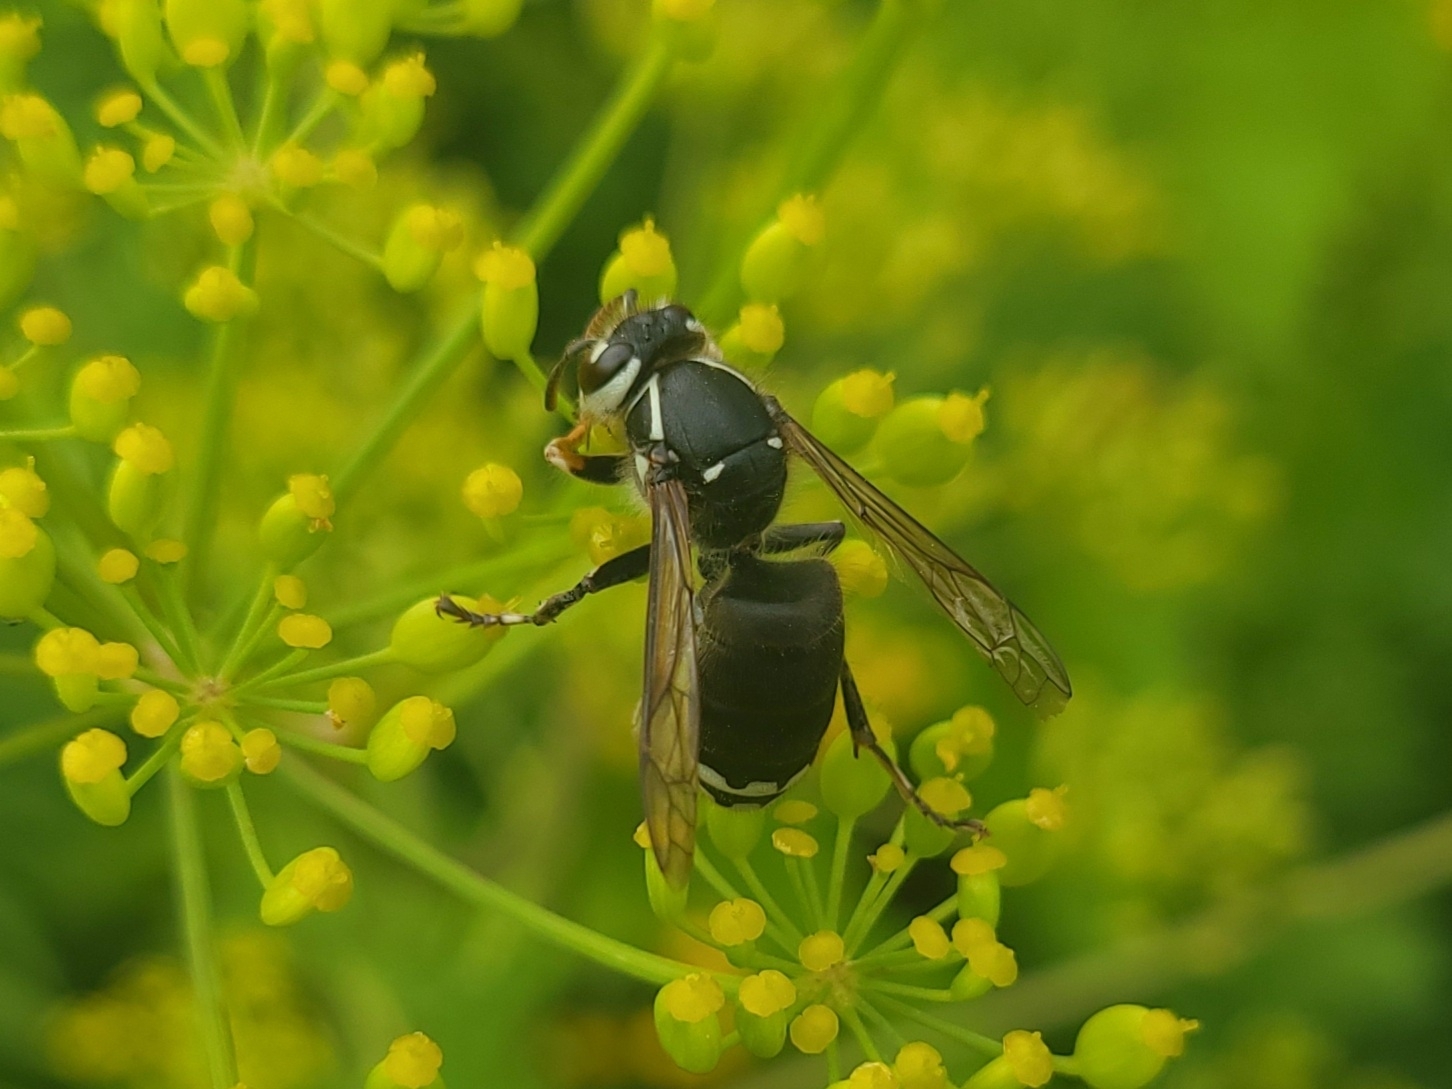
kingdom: Animalia
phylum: Arthropoda
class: Insecta
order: Hymenoptera
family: Vespidae
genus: Dolichovespula
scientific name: Dolichovespula maculata
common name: Bald-faced hornet
